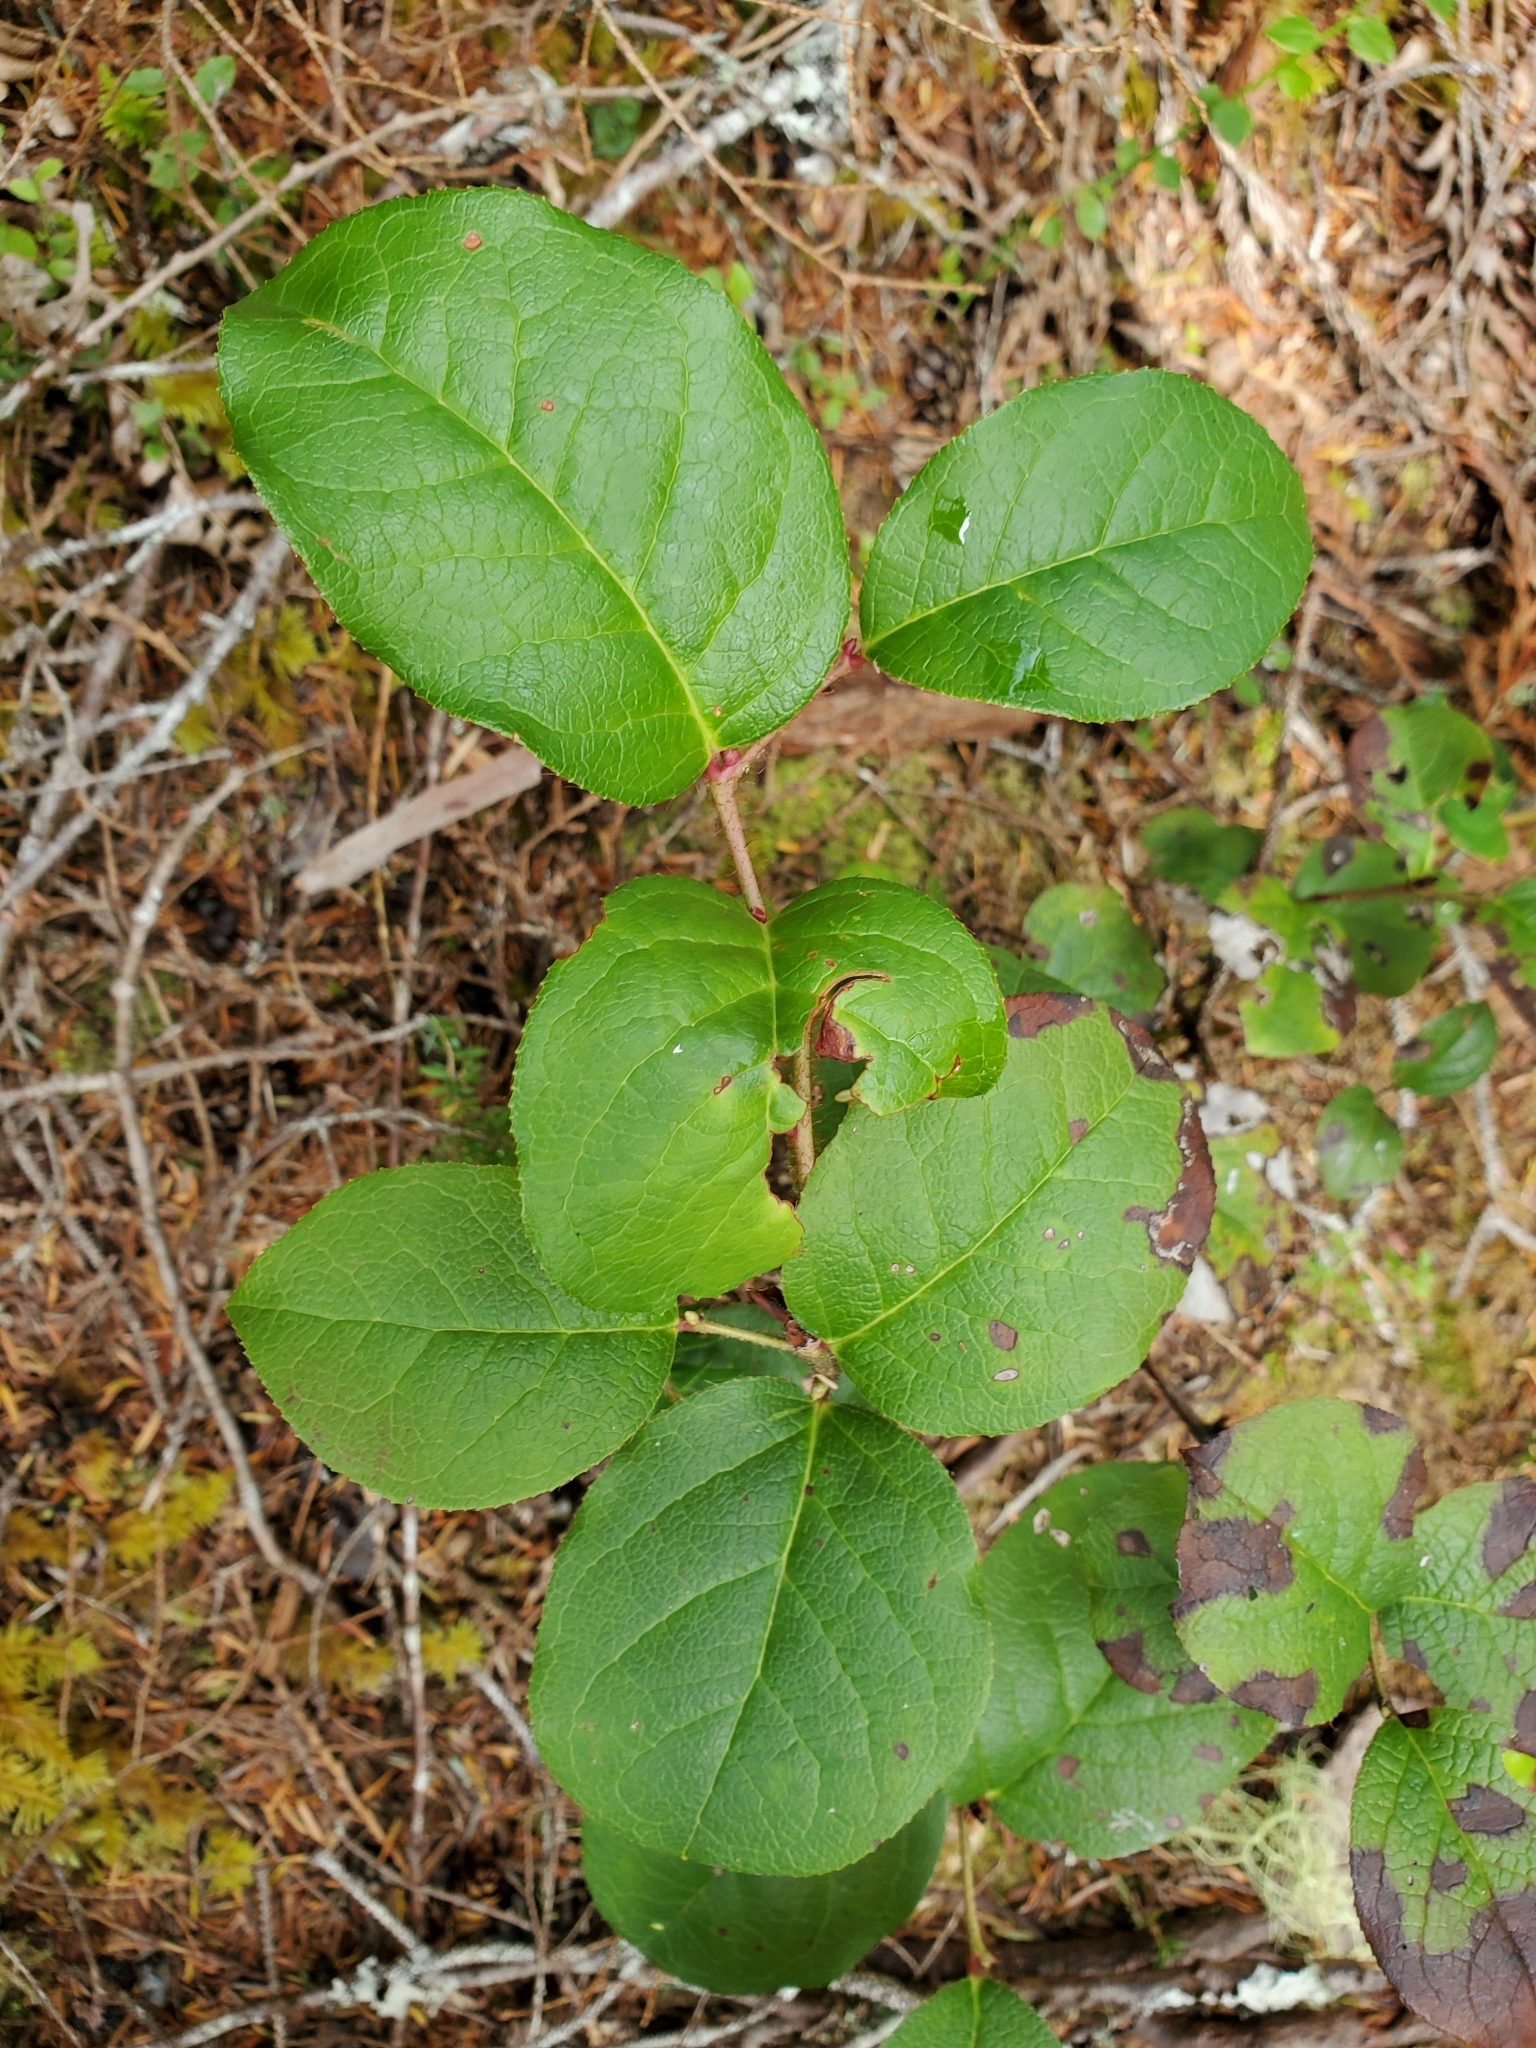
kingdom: Plantae
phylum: Tracheophyta
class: Magnoliopsida
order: Ericales
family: Ericaceae
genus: Gaultheria
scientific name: Gaultheria shallon
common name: Shallon
